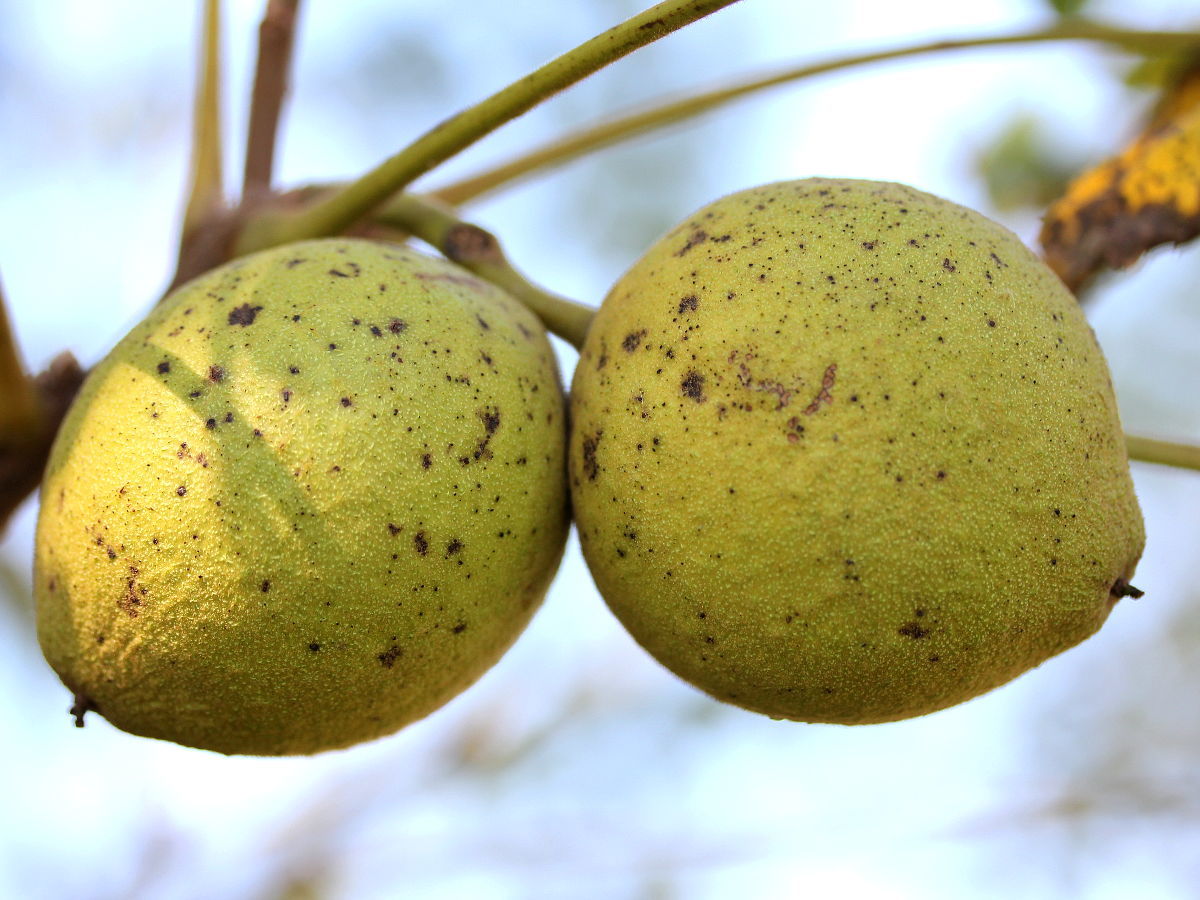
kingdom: Plantae
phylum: Tracheophyta
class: Magnoliopsida
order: Fagales
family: Juglandaceae
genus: Juglans
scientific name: Juglans nigra
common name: Black walnut
